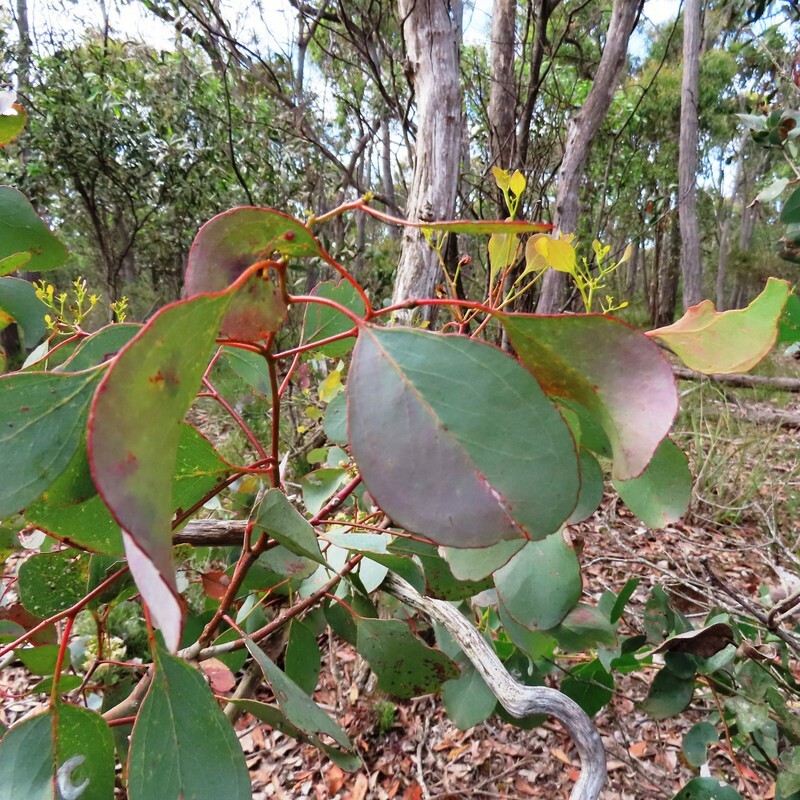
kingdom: Plantae
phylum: Tracheophyta
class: Magnoliopsida
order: Myrtales
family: Myrtaceae
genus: Eucalyptus
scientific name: Eucalyptus polyanthemos
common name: Red-box
